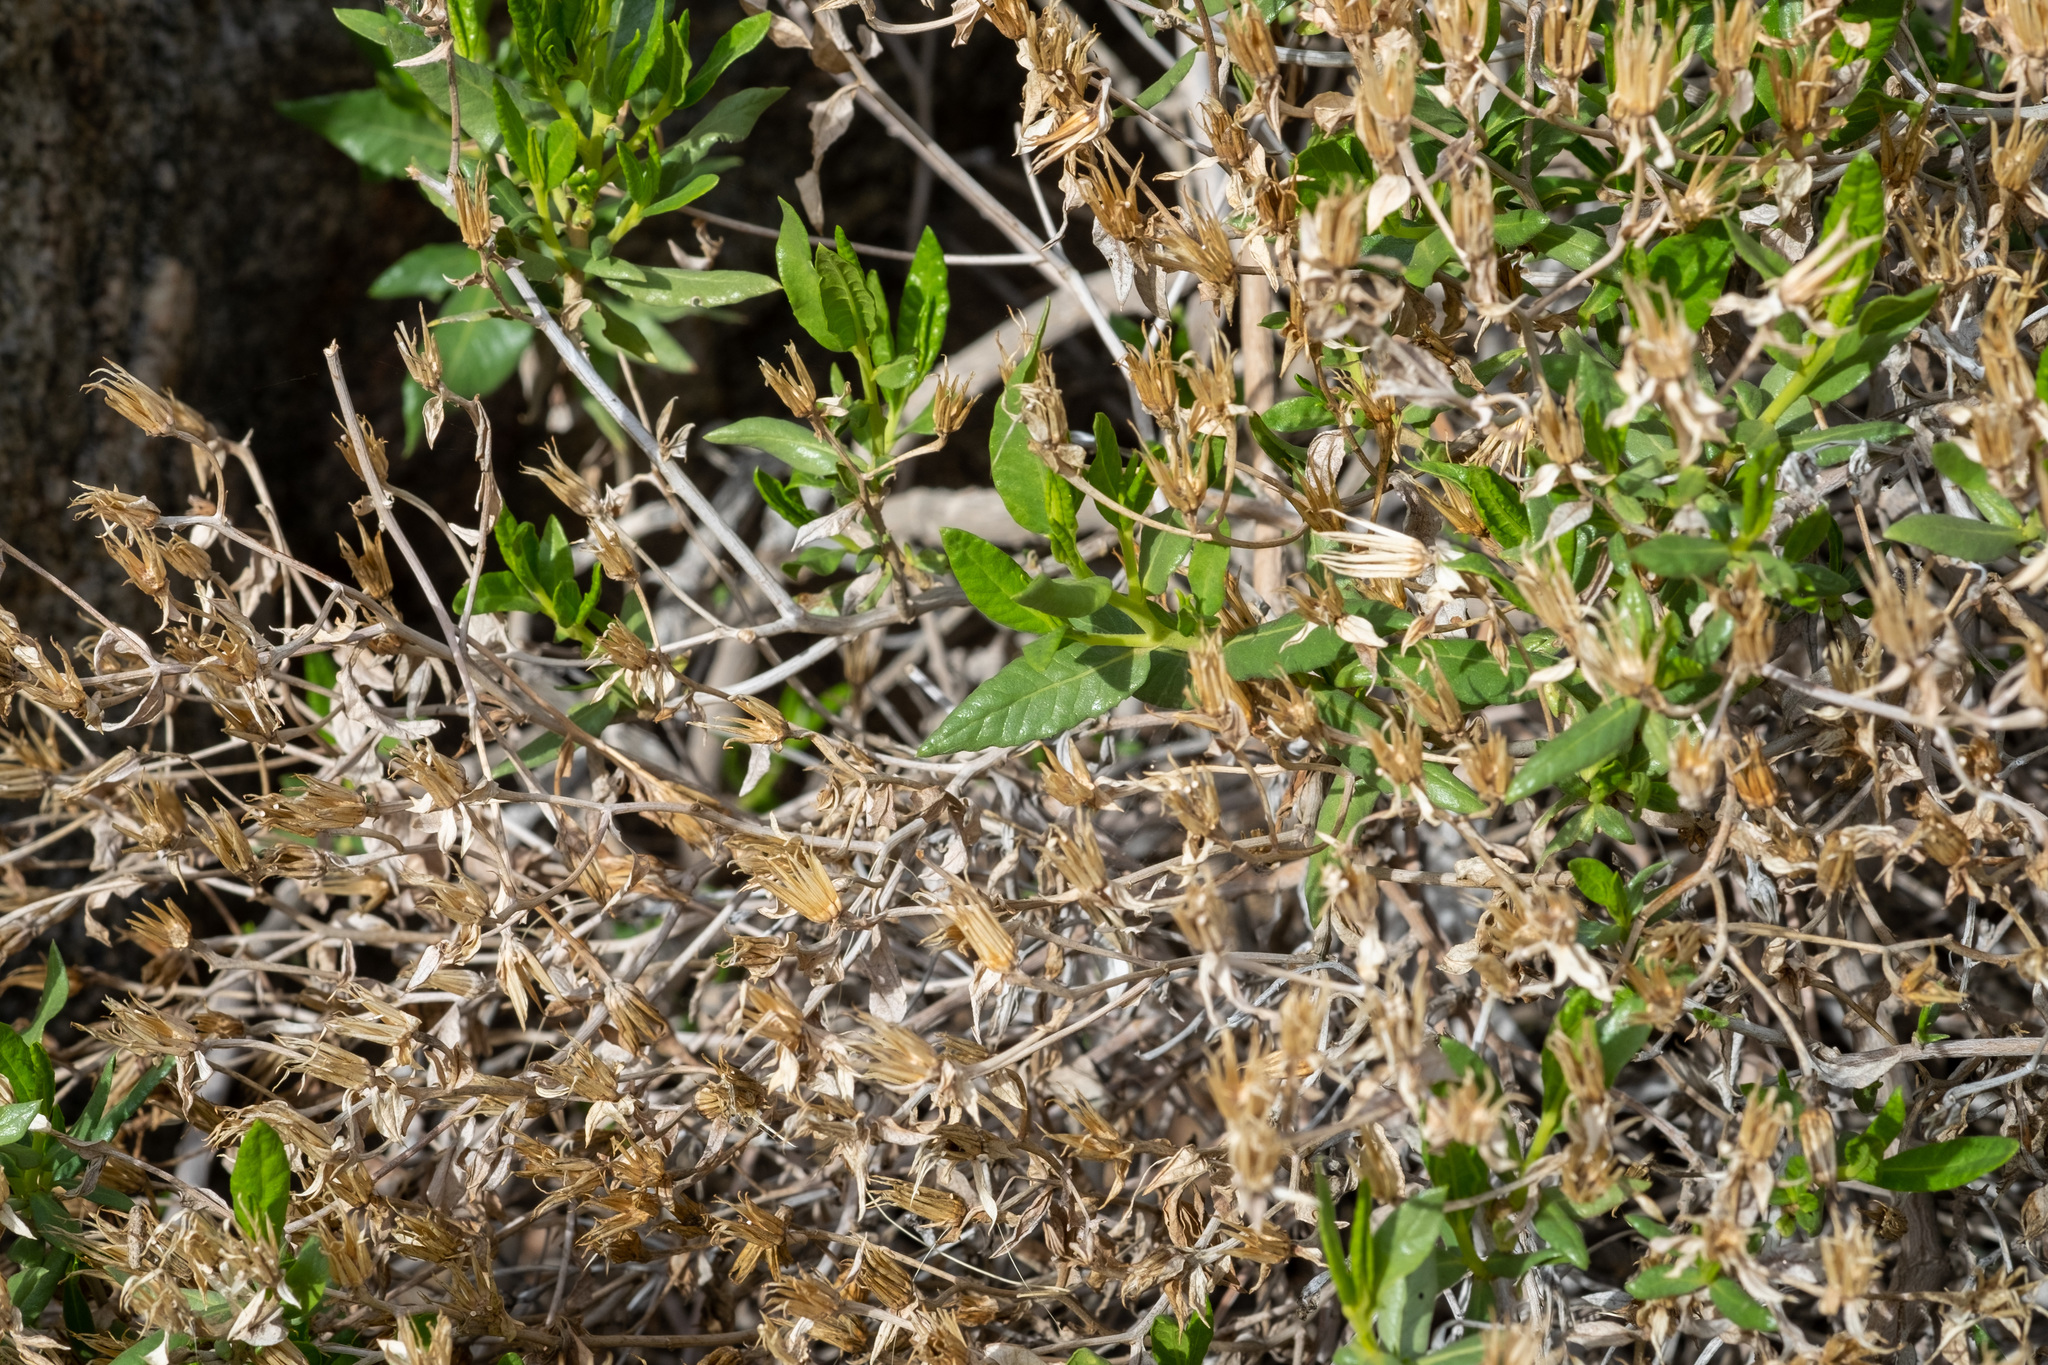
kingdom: Plantae
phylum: Tracheophyta
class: Magnoliopsida
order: Asterales
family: Asteraceae
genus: Trixis
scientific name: Trixis californica
